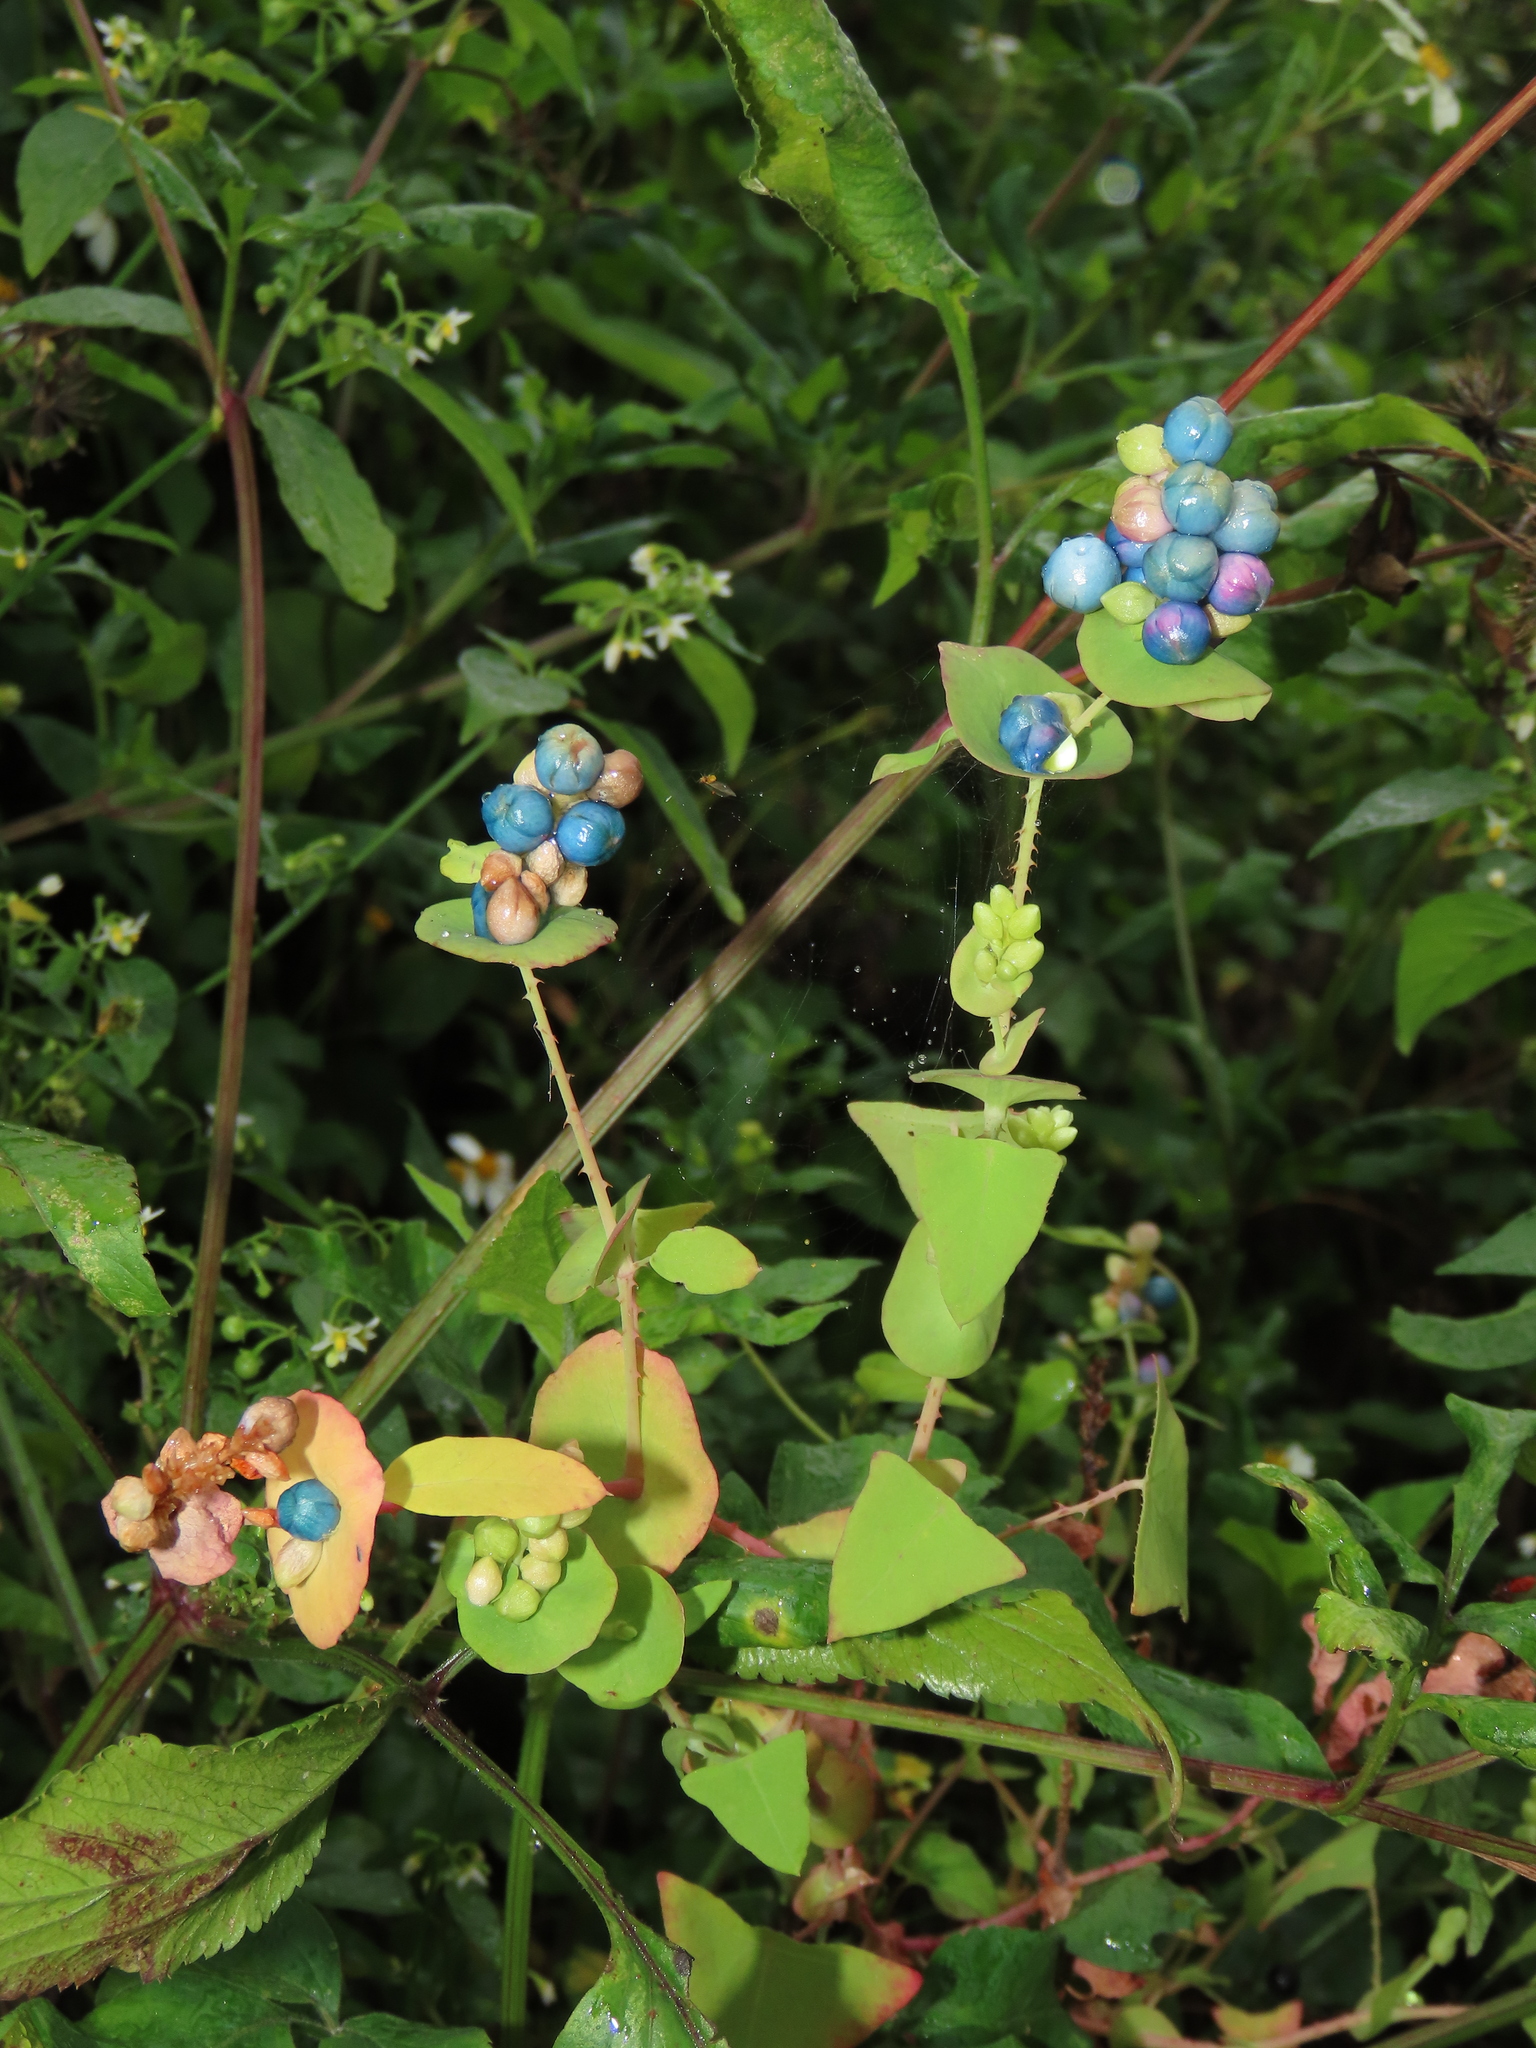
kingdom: Plantae
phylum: Tracheophyta
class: Magnoliopsida
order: Caryophyllales
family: Polygonaceae
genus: Persicaria
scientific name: Persicaria perfoliata
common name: Asiatic tearthumb
